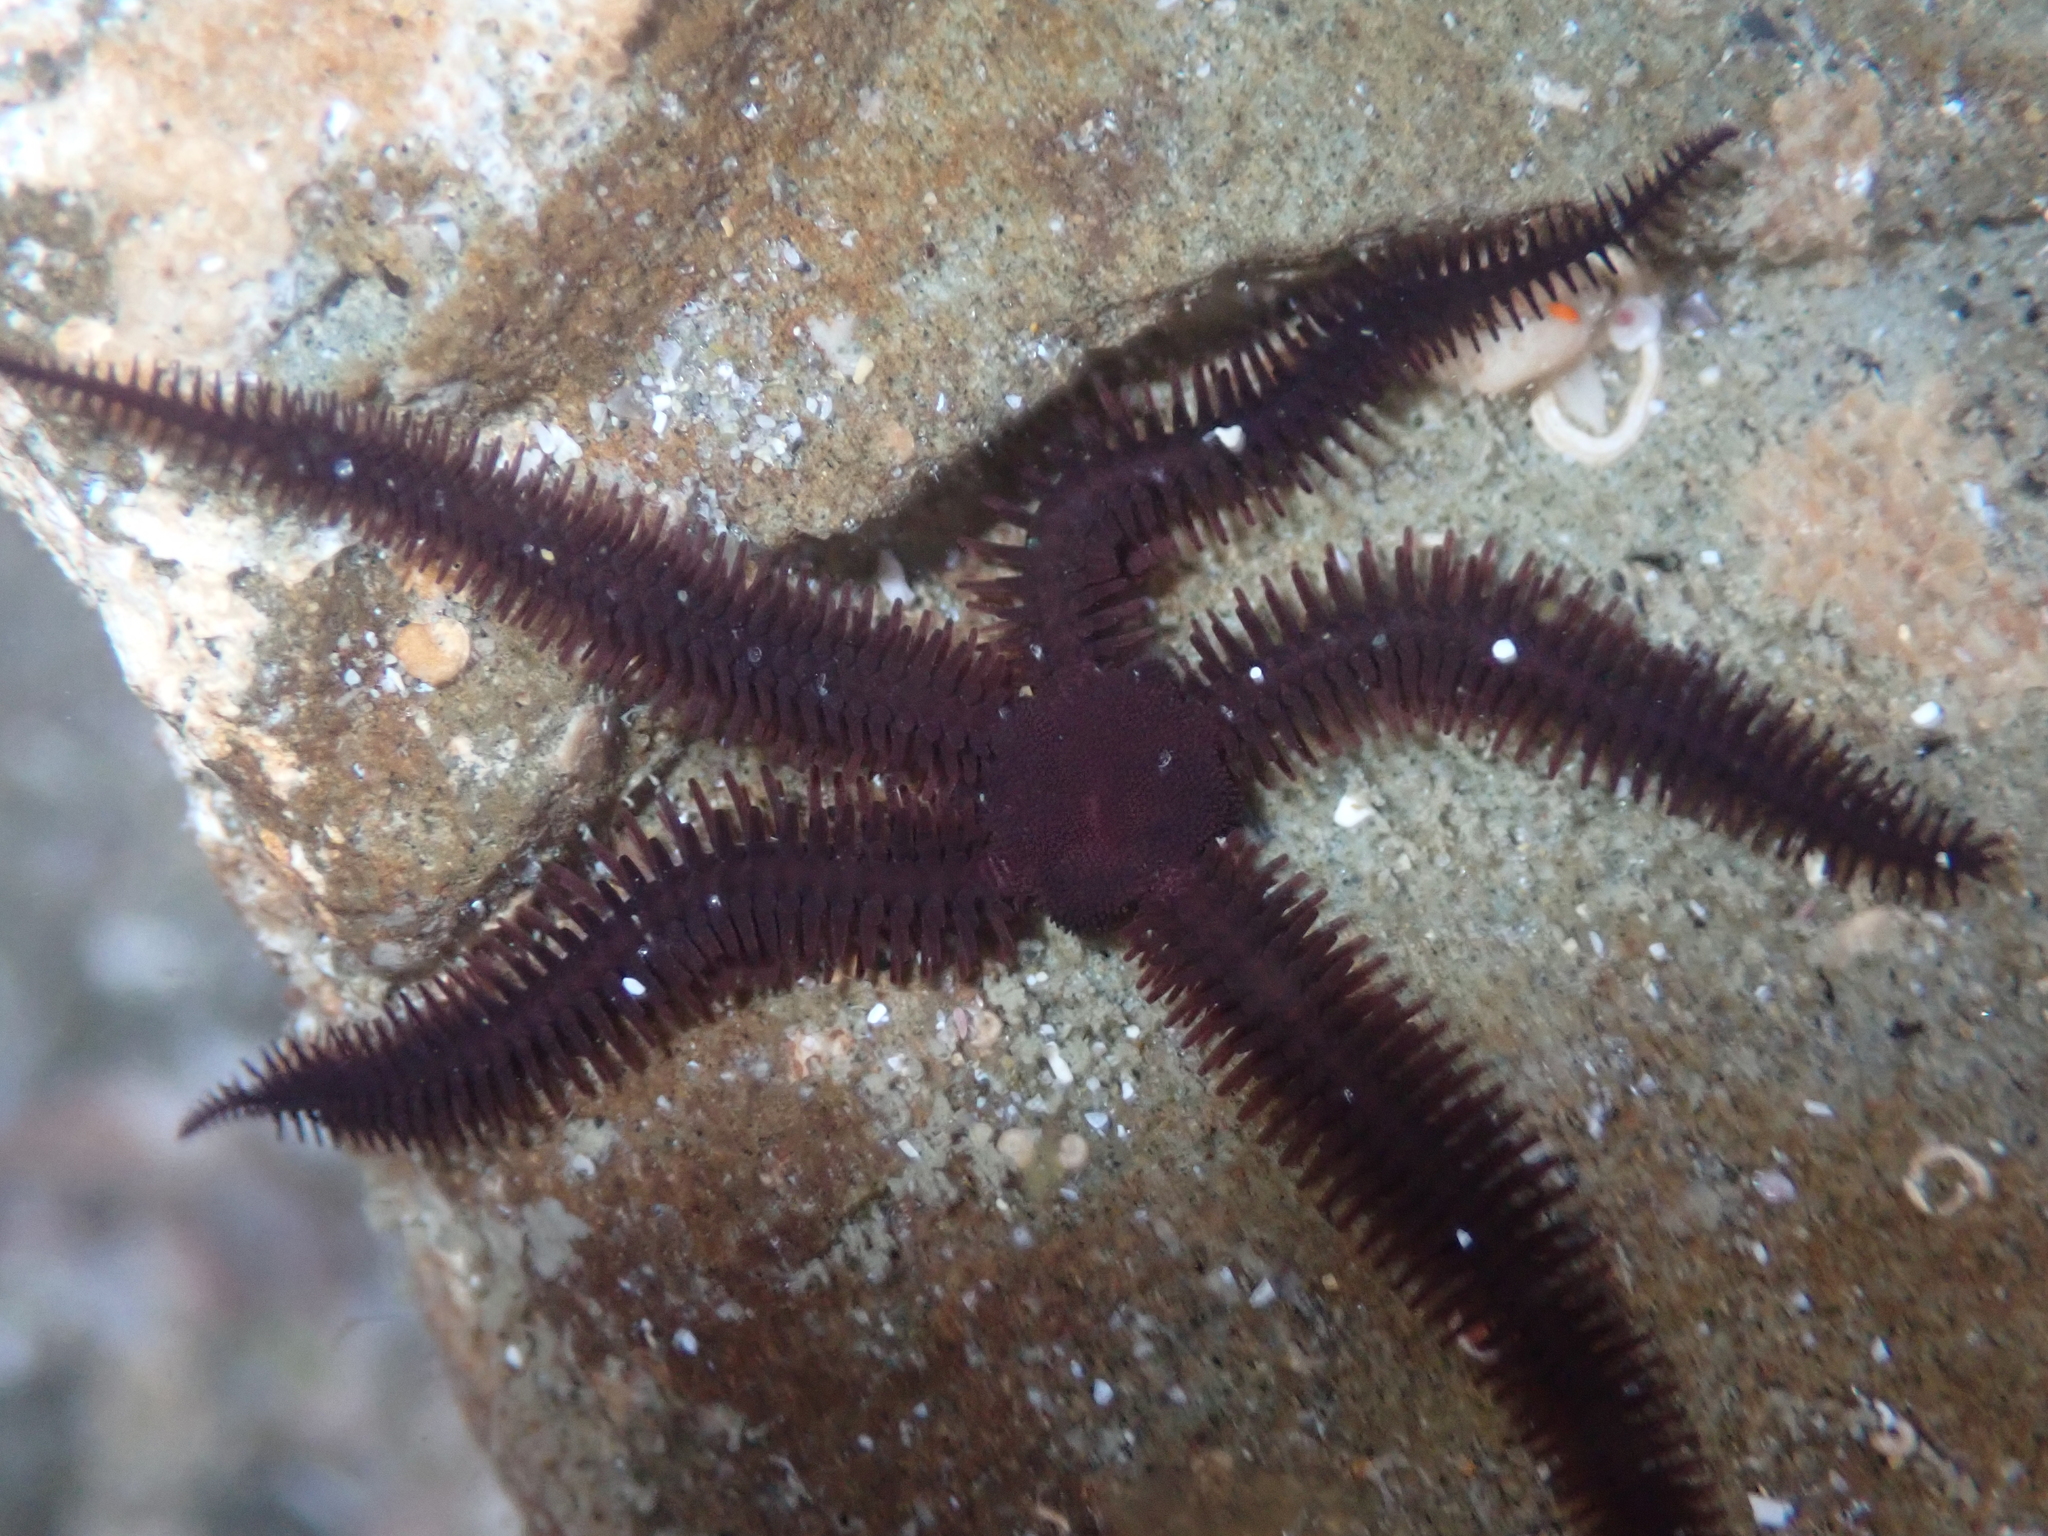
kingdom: Animalia
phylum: Echinodermata
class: Ophiuroidea
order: Ophiacanthida
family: Ophiopteridae
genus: Ophiopteris
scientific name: Ophiopteris antipodum
